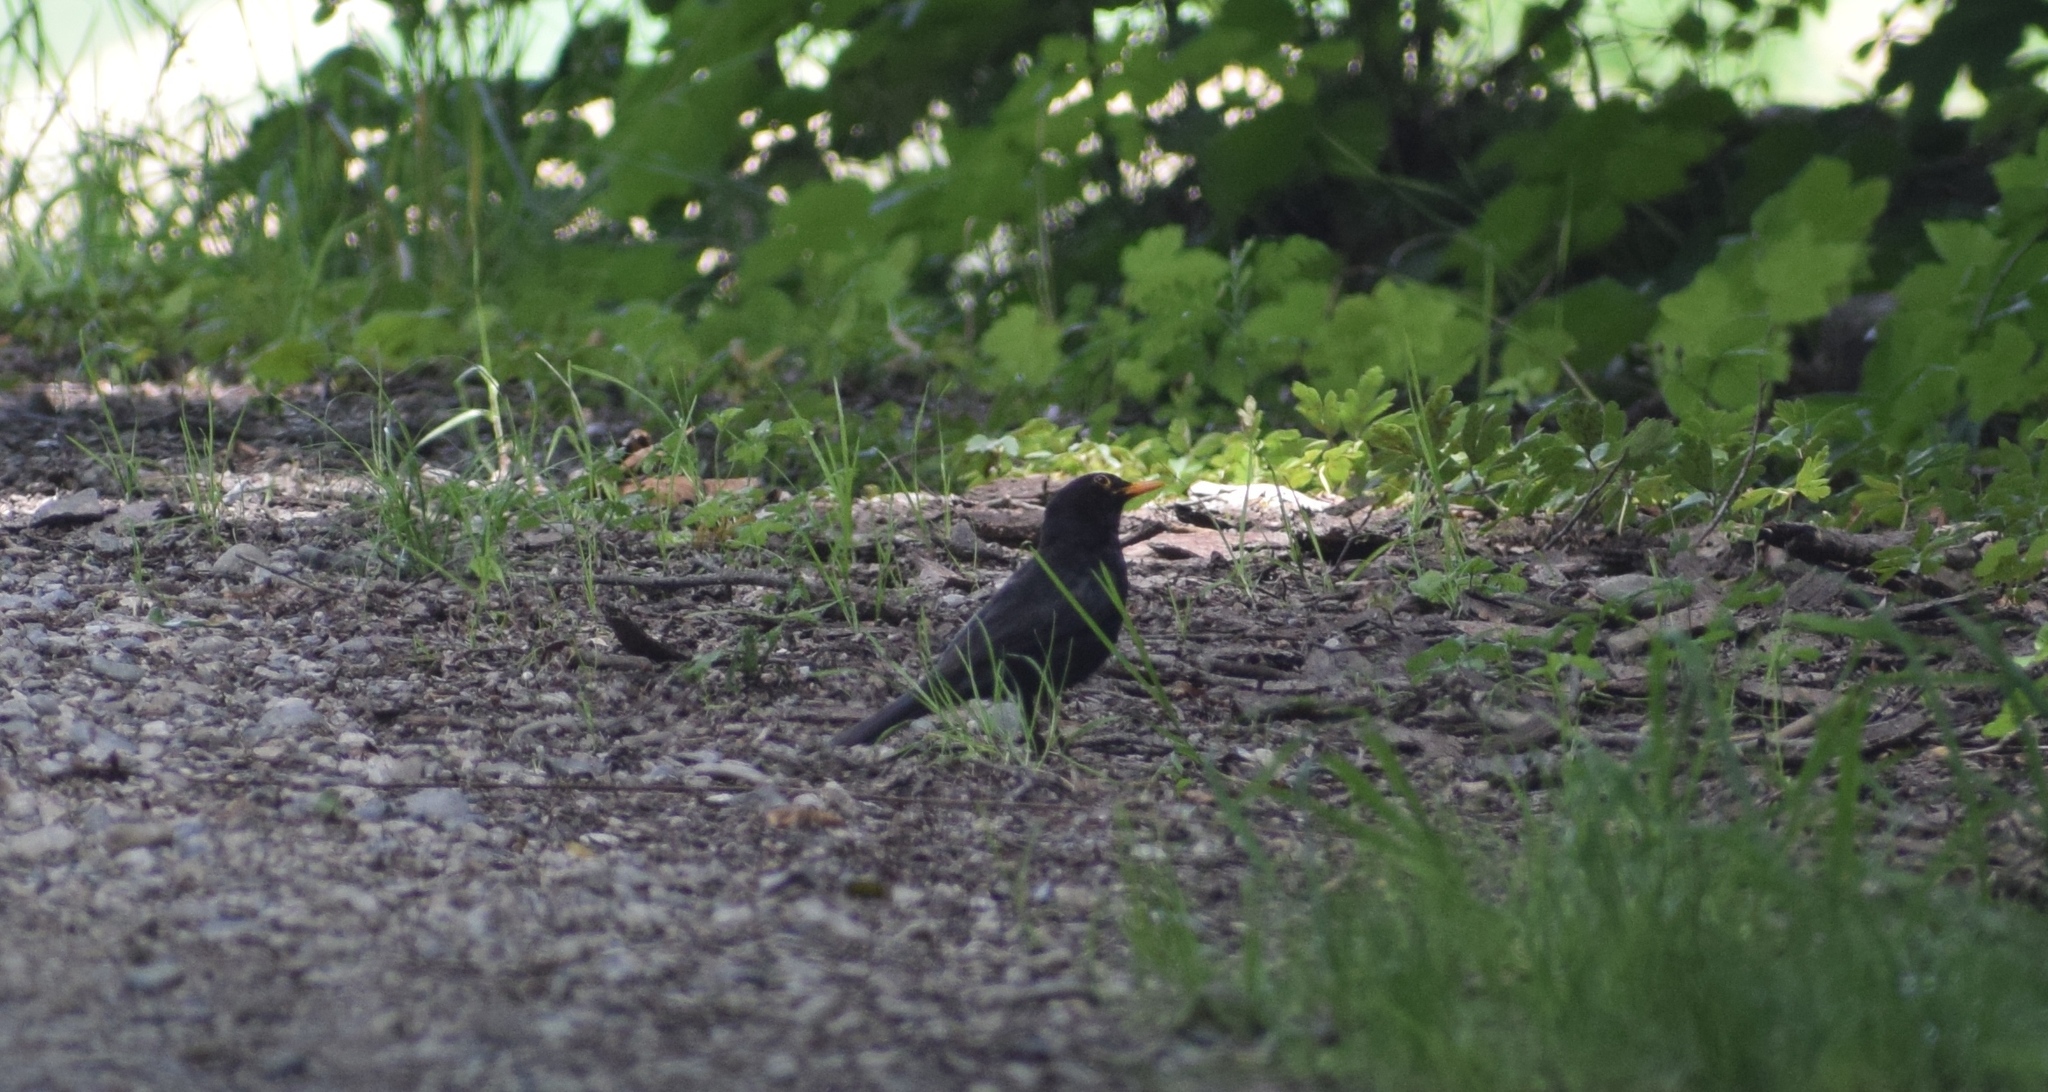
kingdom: Animalia
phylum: Chordata
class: Aves
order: Passeriformes
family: Turdidae
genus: Turdus
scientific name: Turdus merula
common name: Common blackbird
